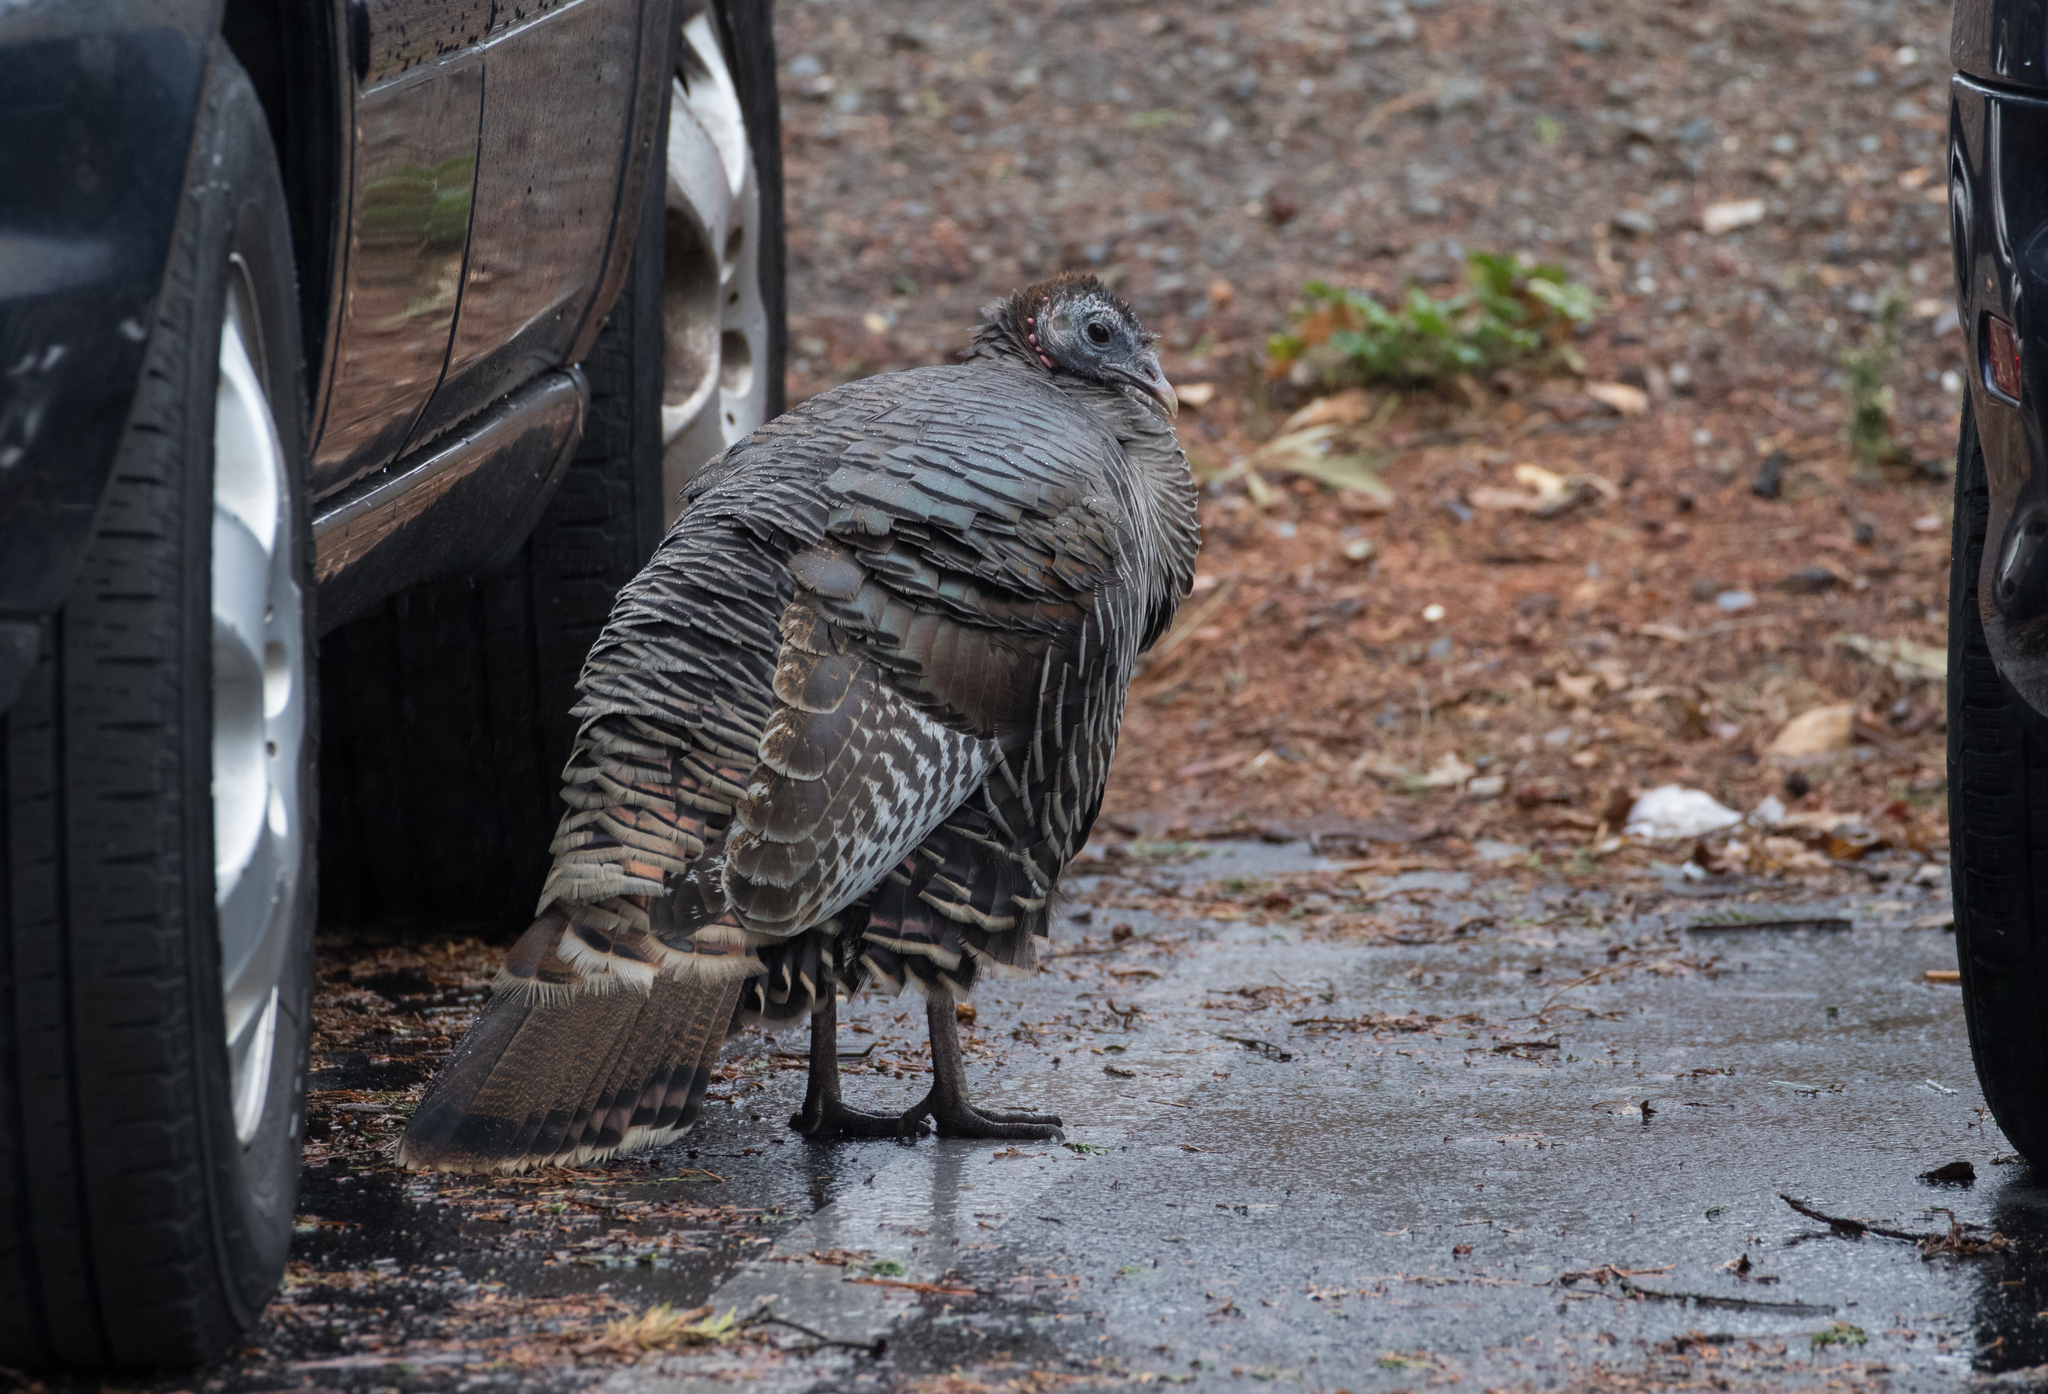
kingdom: Animalia
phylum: Chordata
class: Aves
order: Galliformes
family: Phasianidae
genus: Meleagris
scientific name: Meleagris gallopavo
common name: Wild turkey
